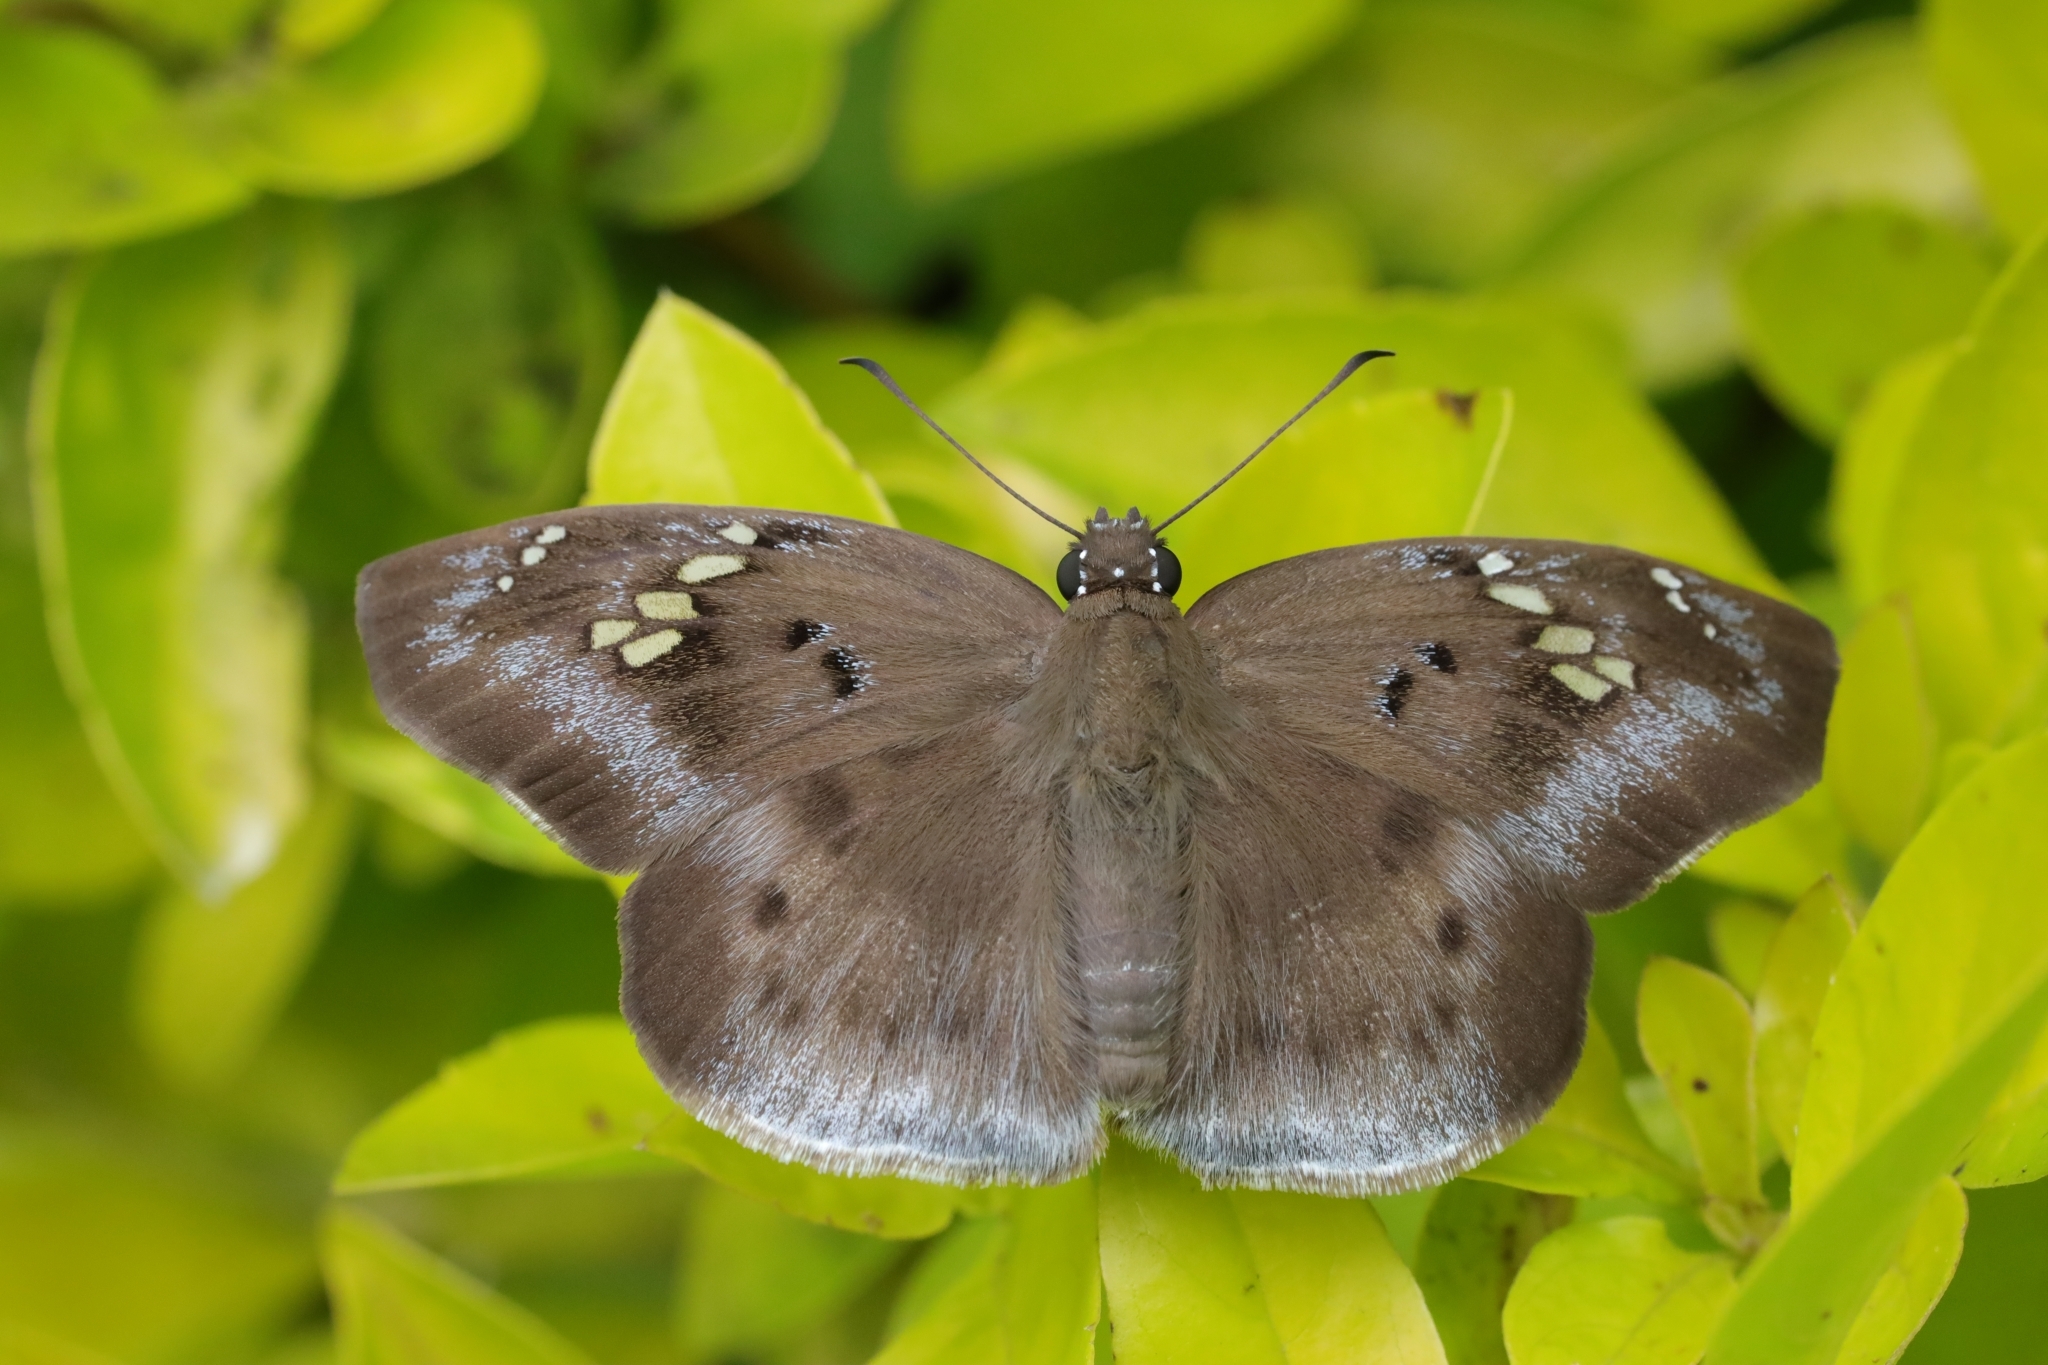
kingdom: Animalia
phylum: Arthropoda
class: Insecta
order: Lepidoptera
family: Hesperiidae
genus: Tagiades
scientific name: Tagiades flesus
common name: Clouded flat
